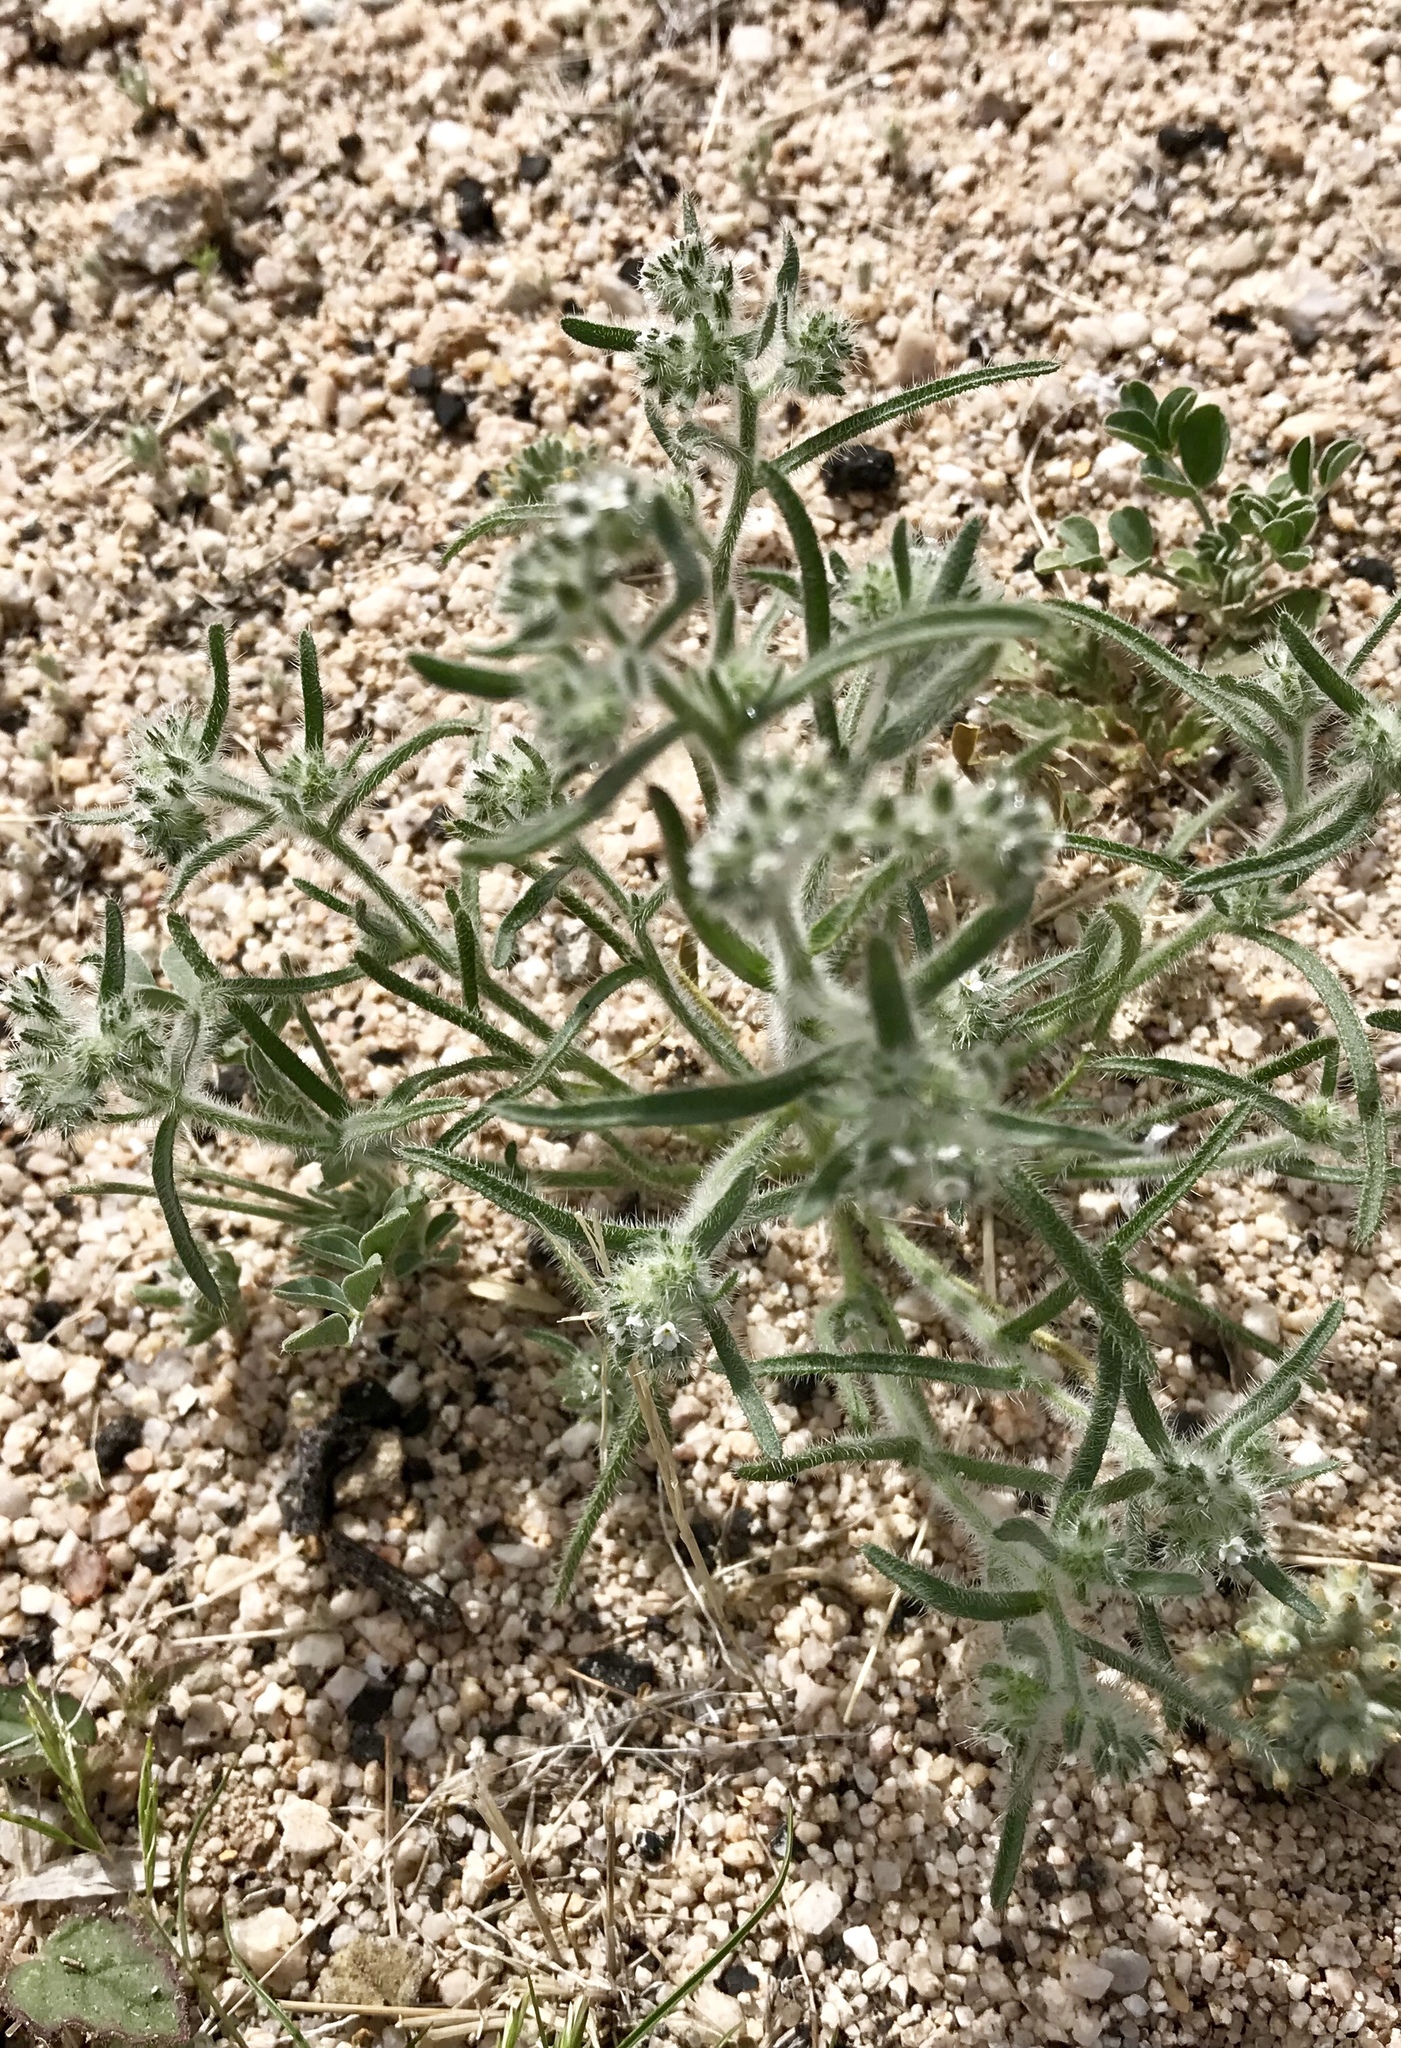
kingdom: Plantae
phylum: Tracheophyta
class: Magnoliopsida
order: Boraginales
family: Boraginaceae
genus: Johnstonella
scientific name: Johnstonella angustifolia
